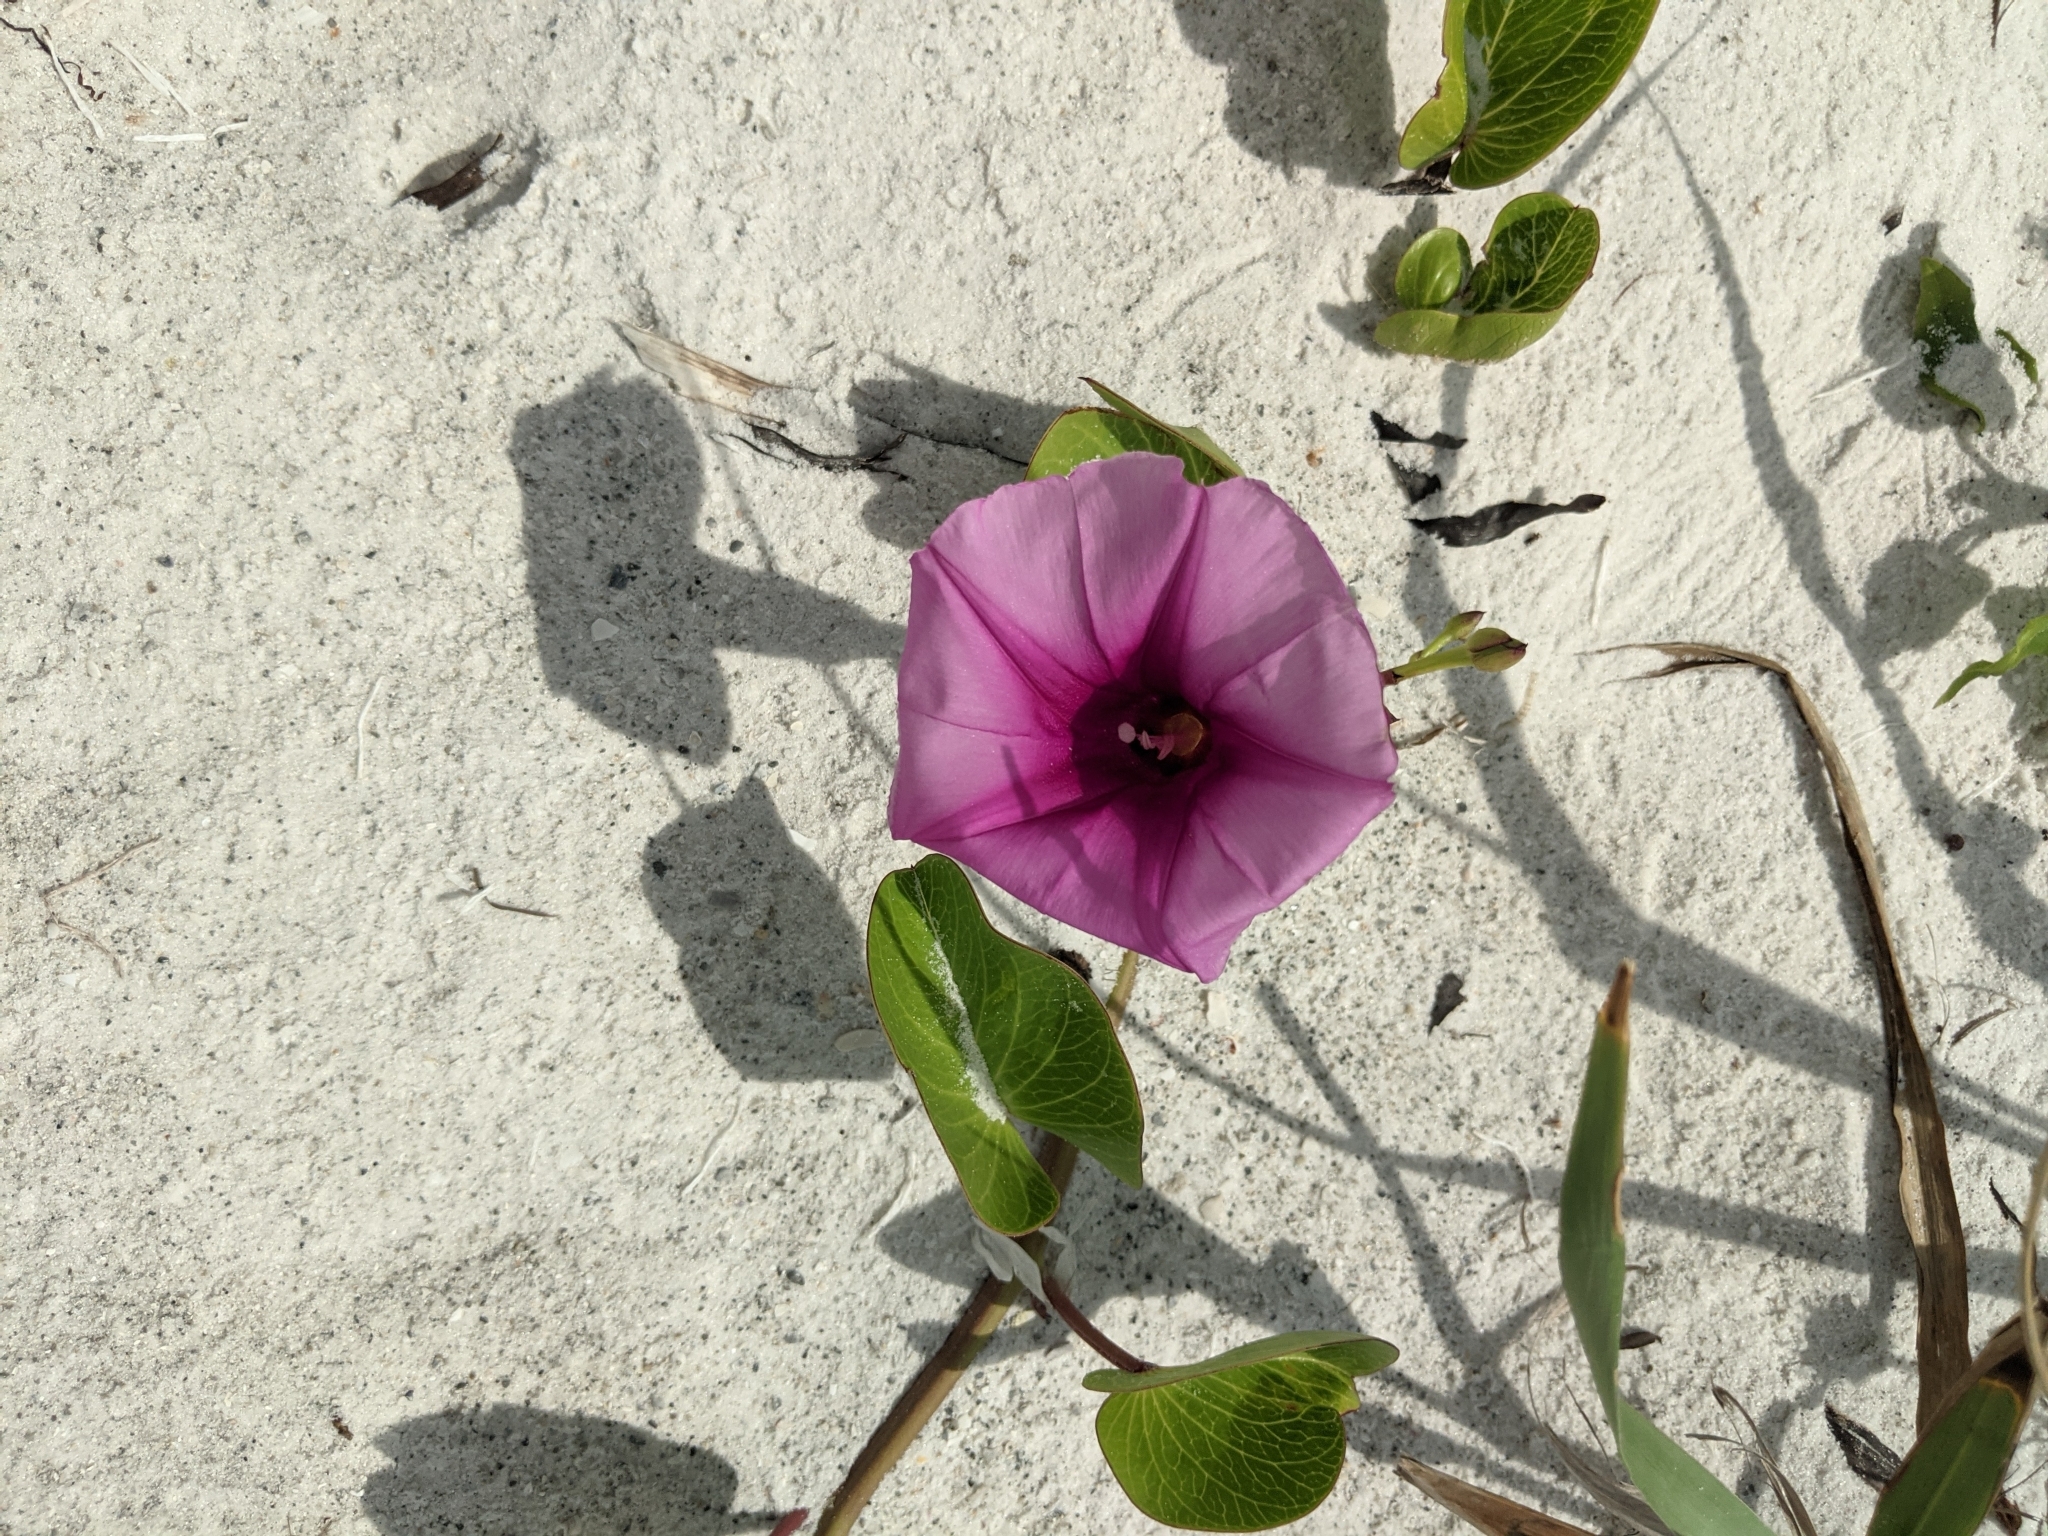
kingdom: Plantae
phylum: Tracheophyta
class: Magnoliopsida
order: Solanales
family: Convolvulaceae
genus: Ipomoea
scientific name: Ipomoea pes-caprae
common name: Beach morning glory
